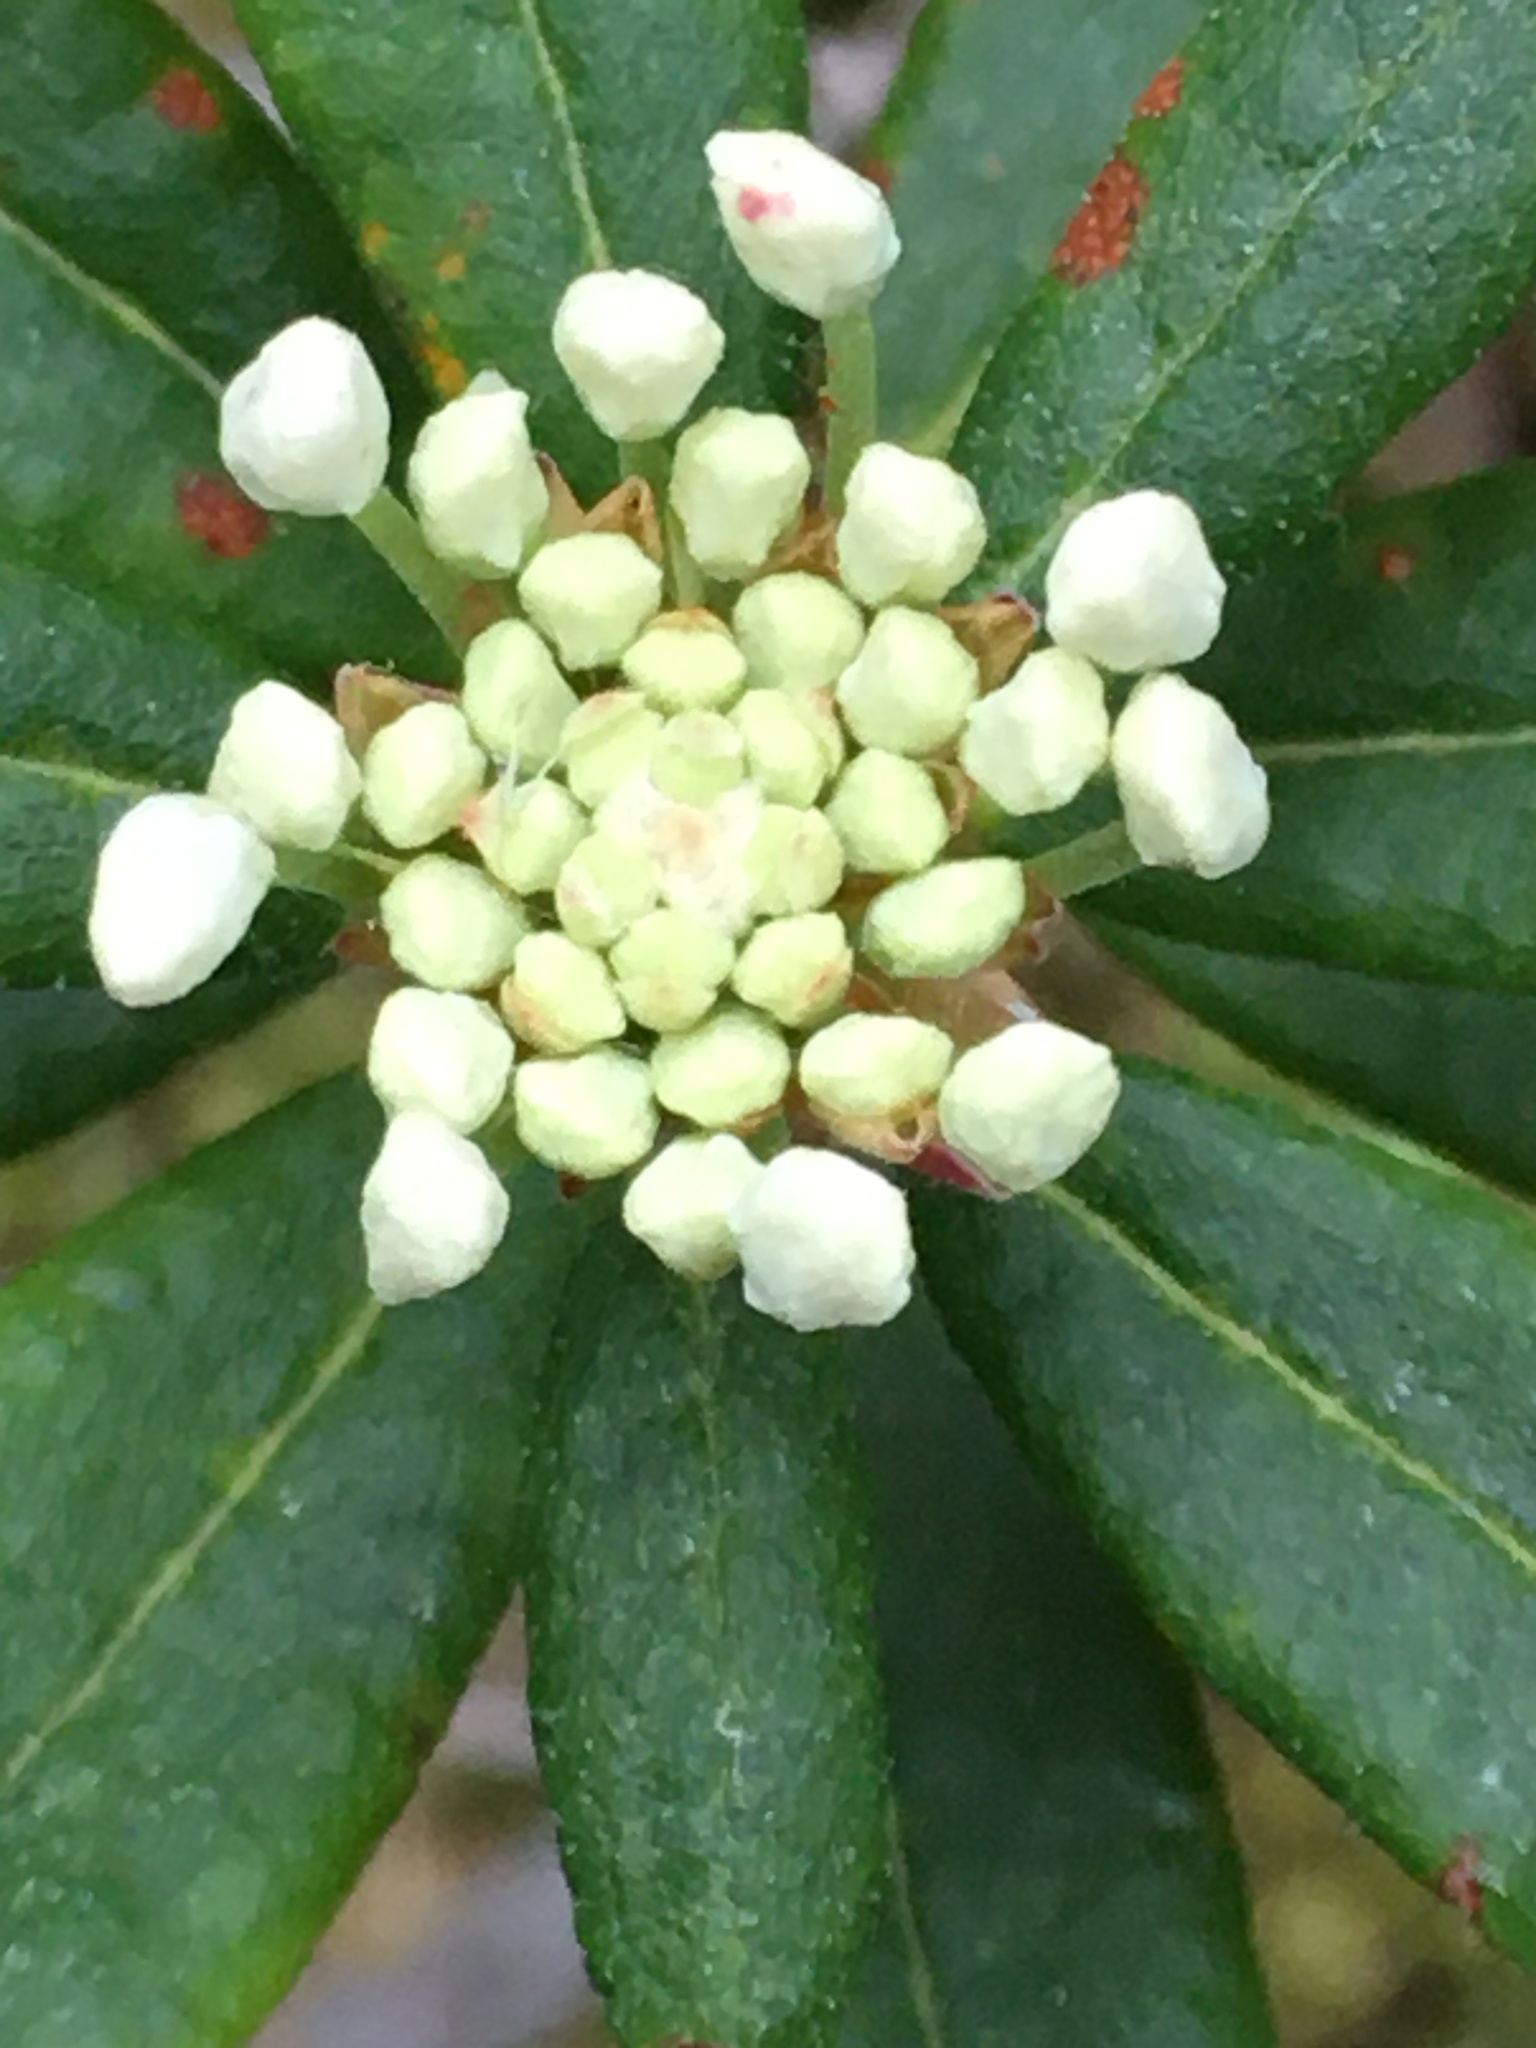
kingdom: Plantae
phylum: Tracheophyta
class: Magnoliopsida
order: Ericales
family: Ericaceae
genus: Rhododendron
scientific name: Rhododendron groenlandicum
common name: Bog labrador tea
